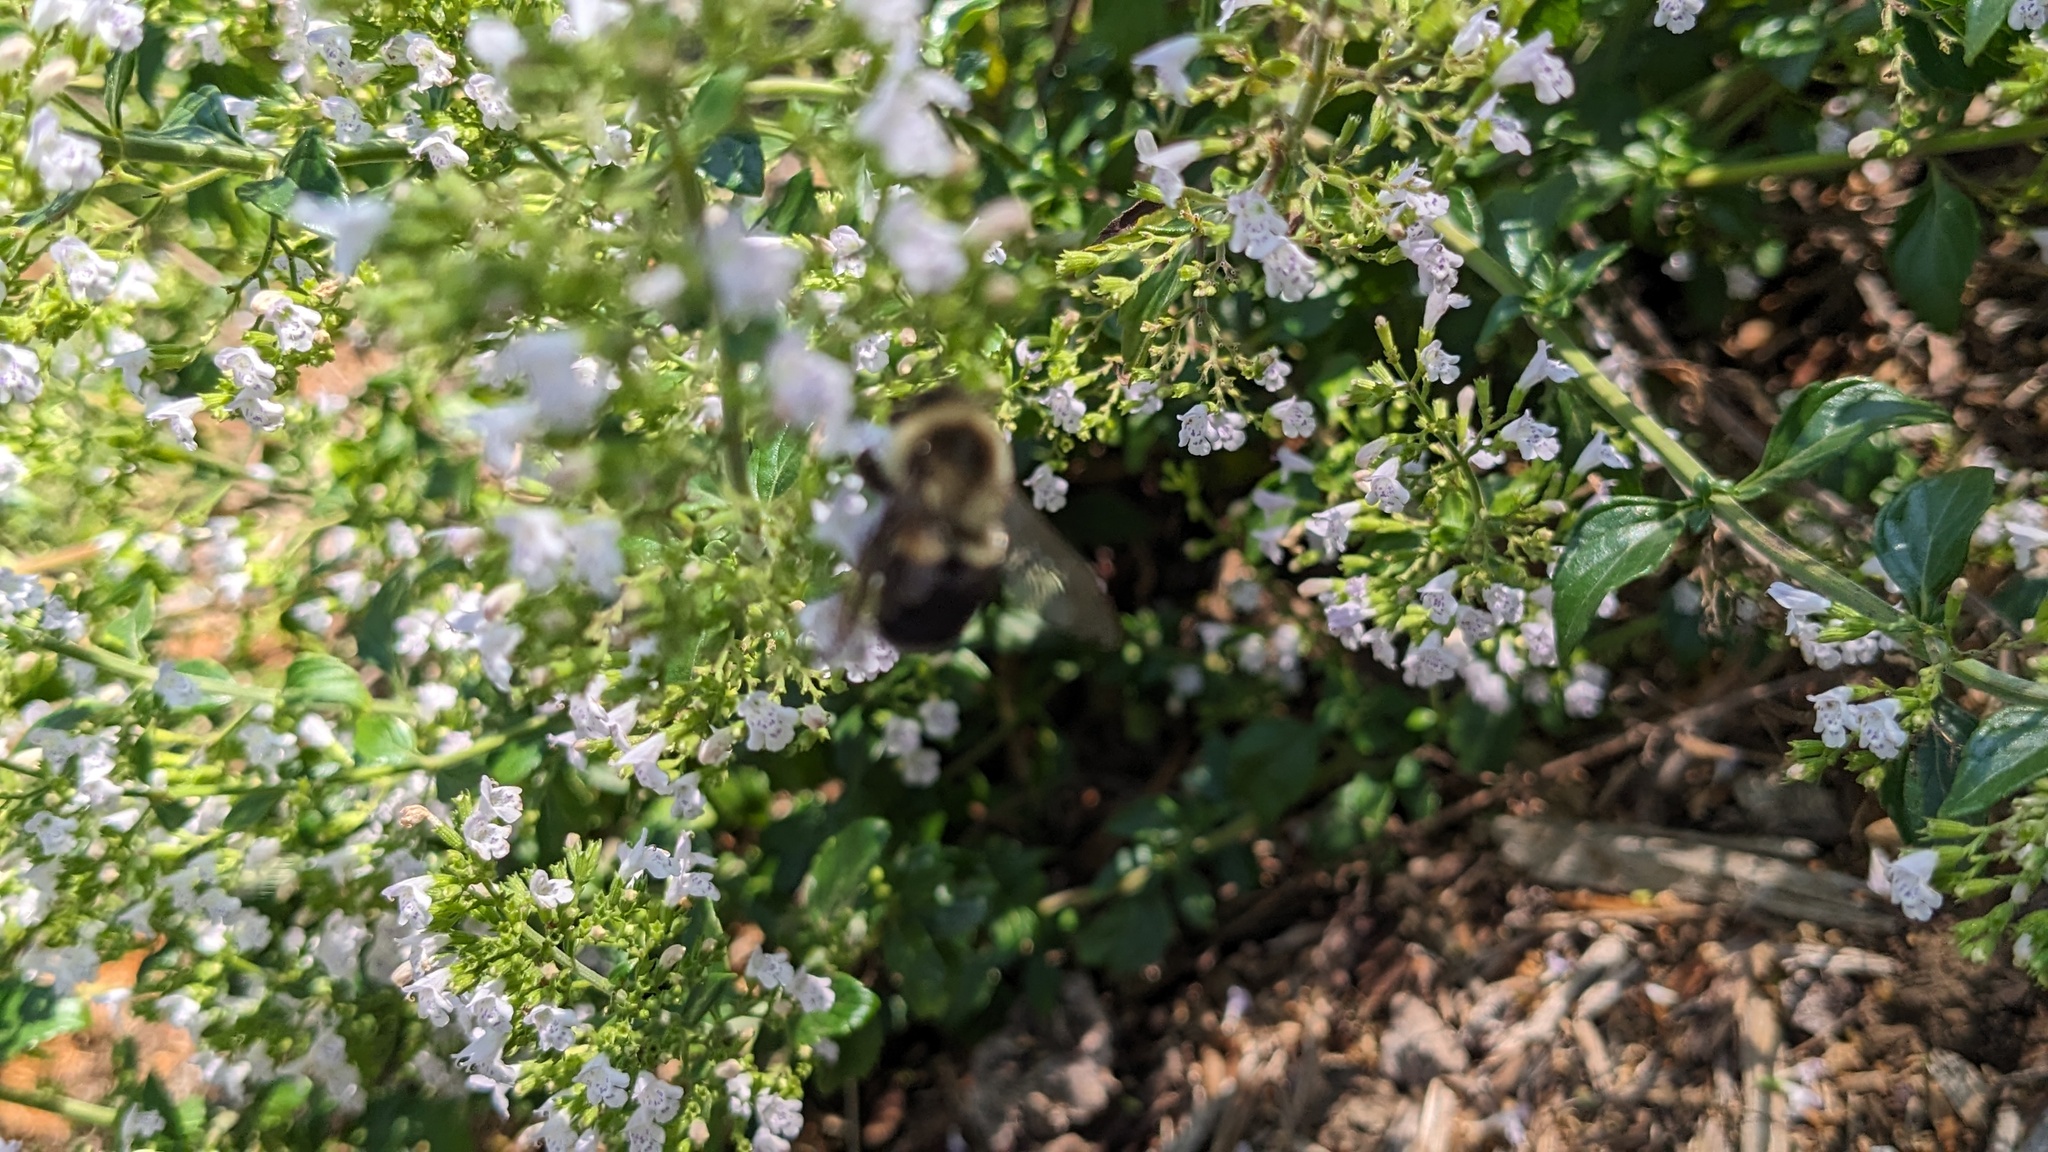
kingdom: Animalia
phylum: Arthropoda
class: Insecta
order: Hymenoptera
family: Apidae
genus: Bombus
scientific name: Bombus impatiens
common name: Common eastern bumble bee
